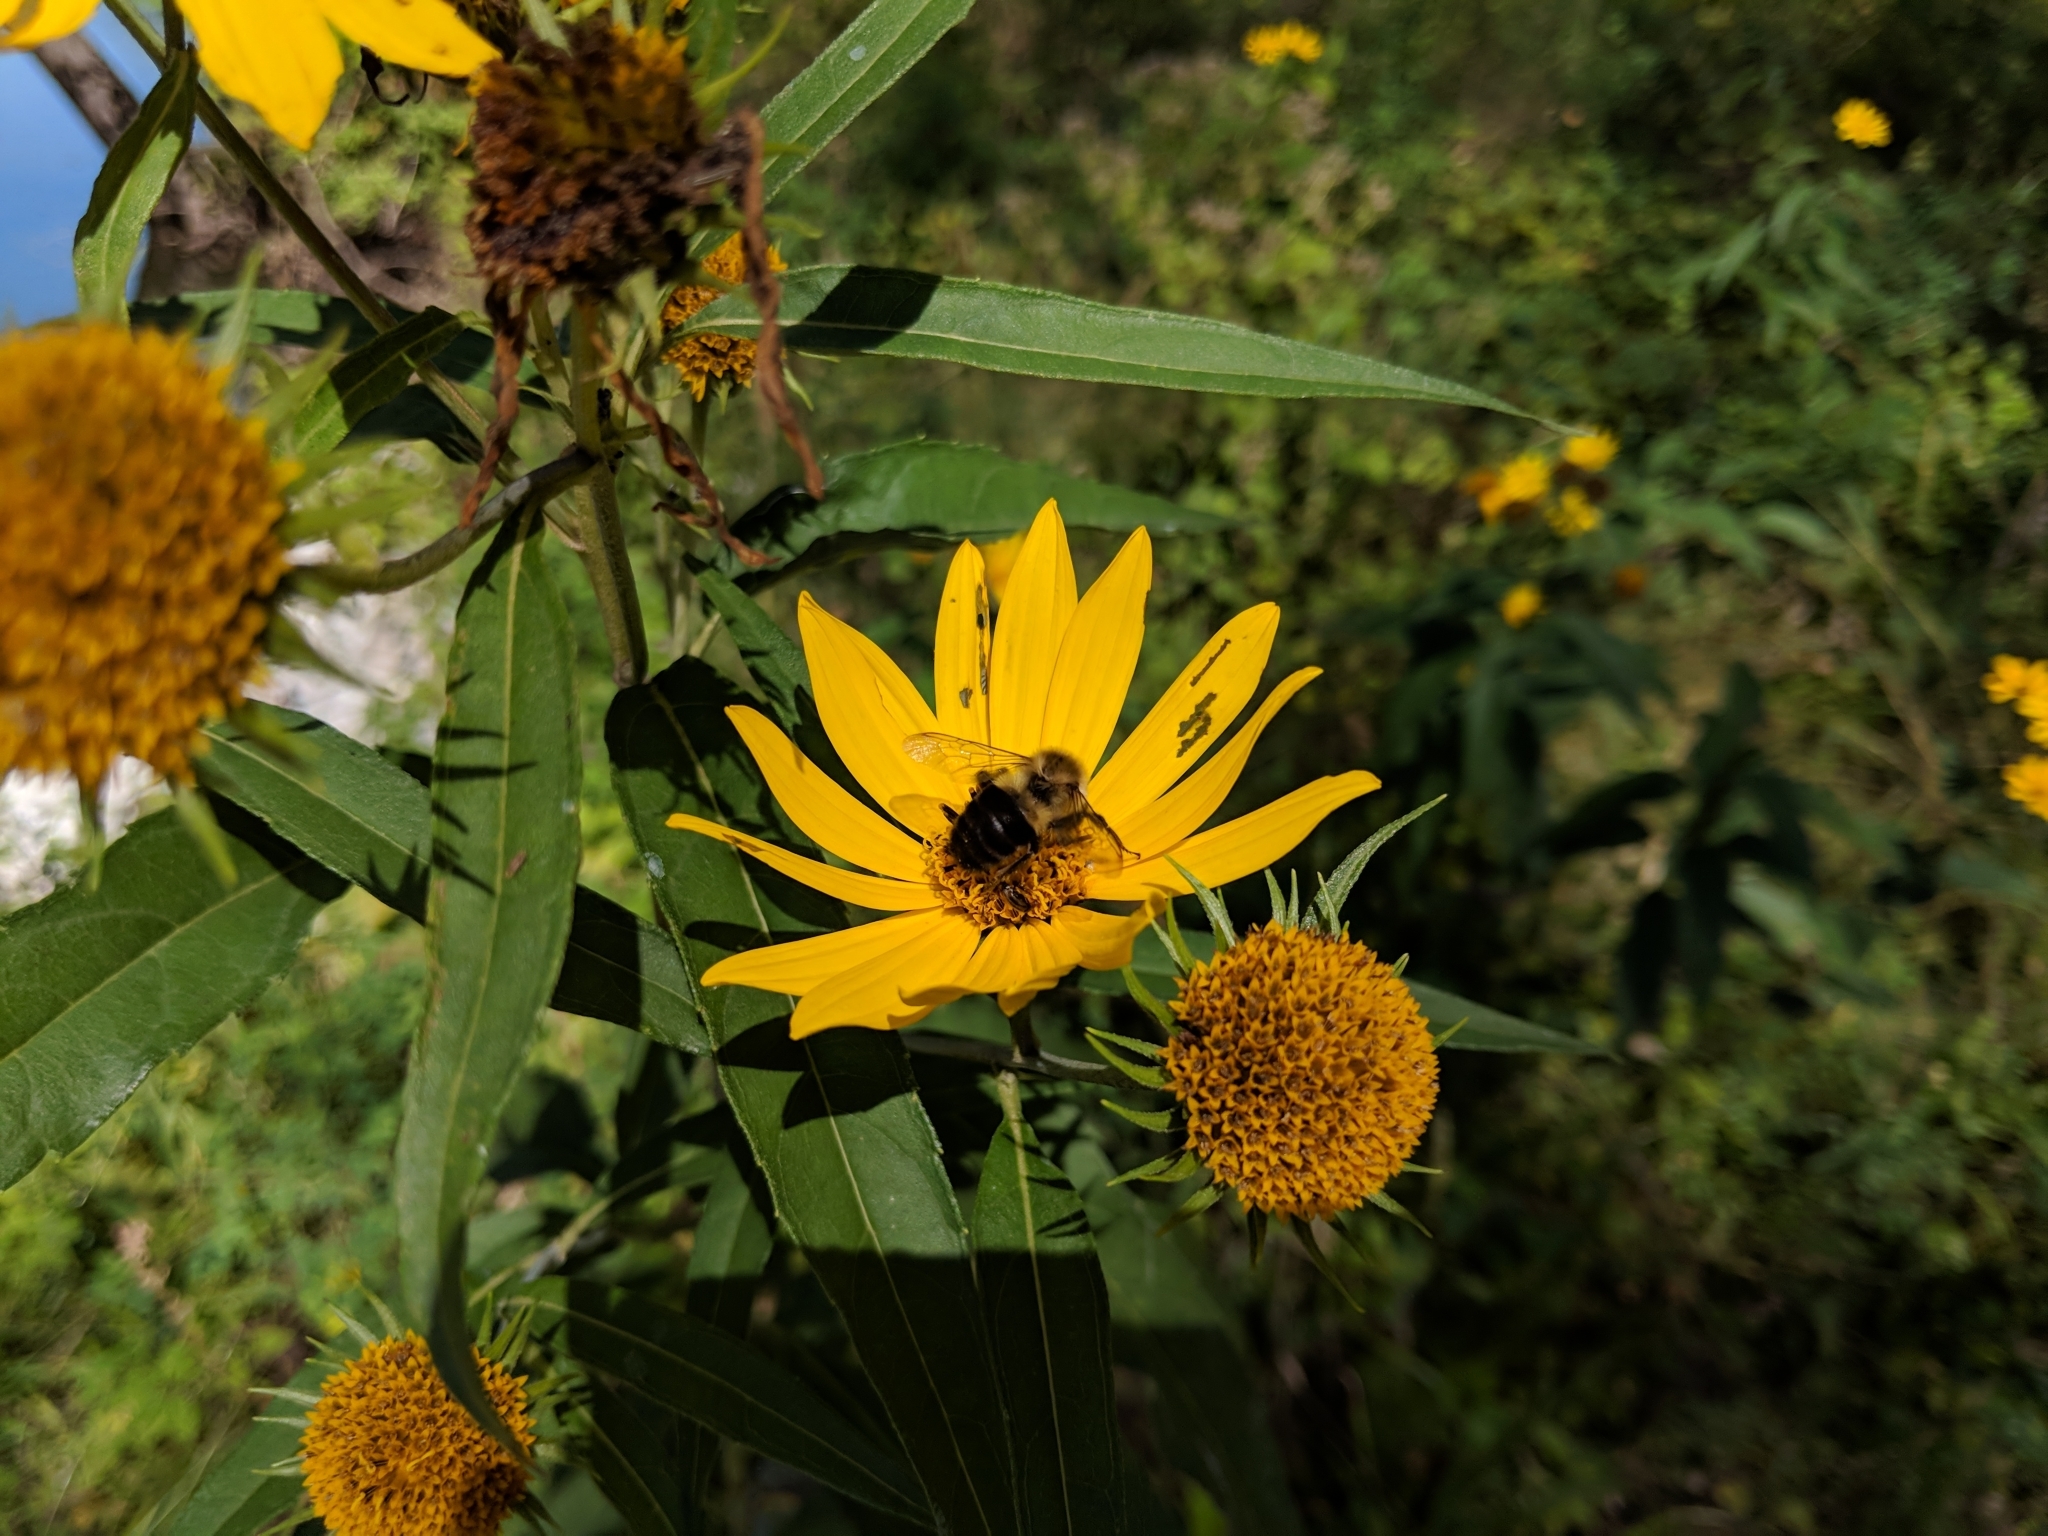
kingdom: Animalia
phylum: Arthropoda
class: Insecta
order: Hymenoptera
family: Apidae
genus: Bombus
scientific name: Bombus impatiens
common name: Common eastern bumble bee
